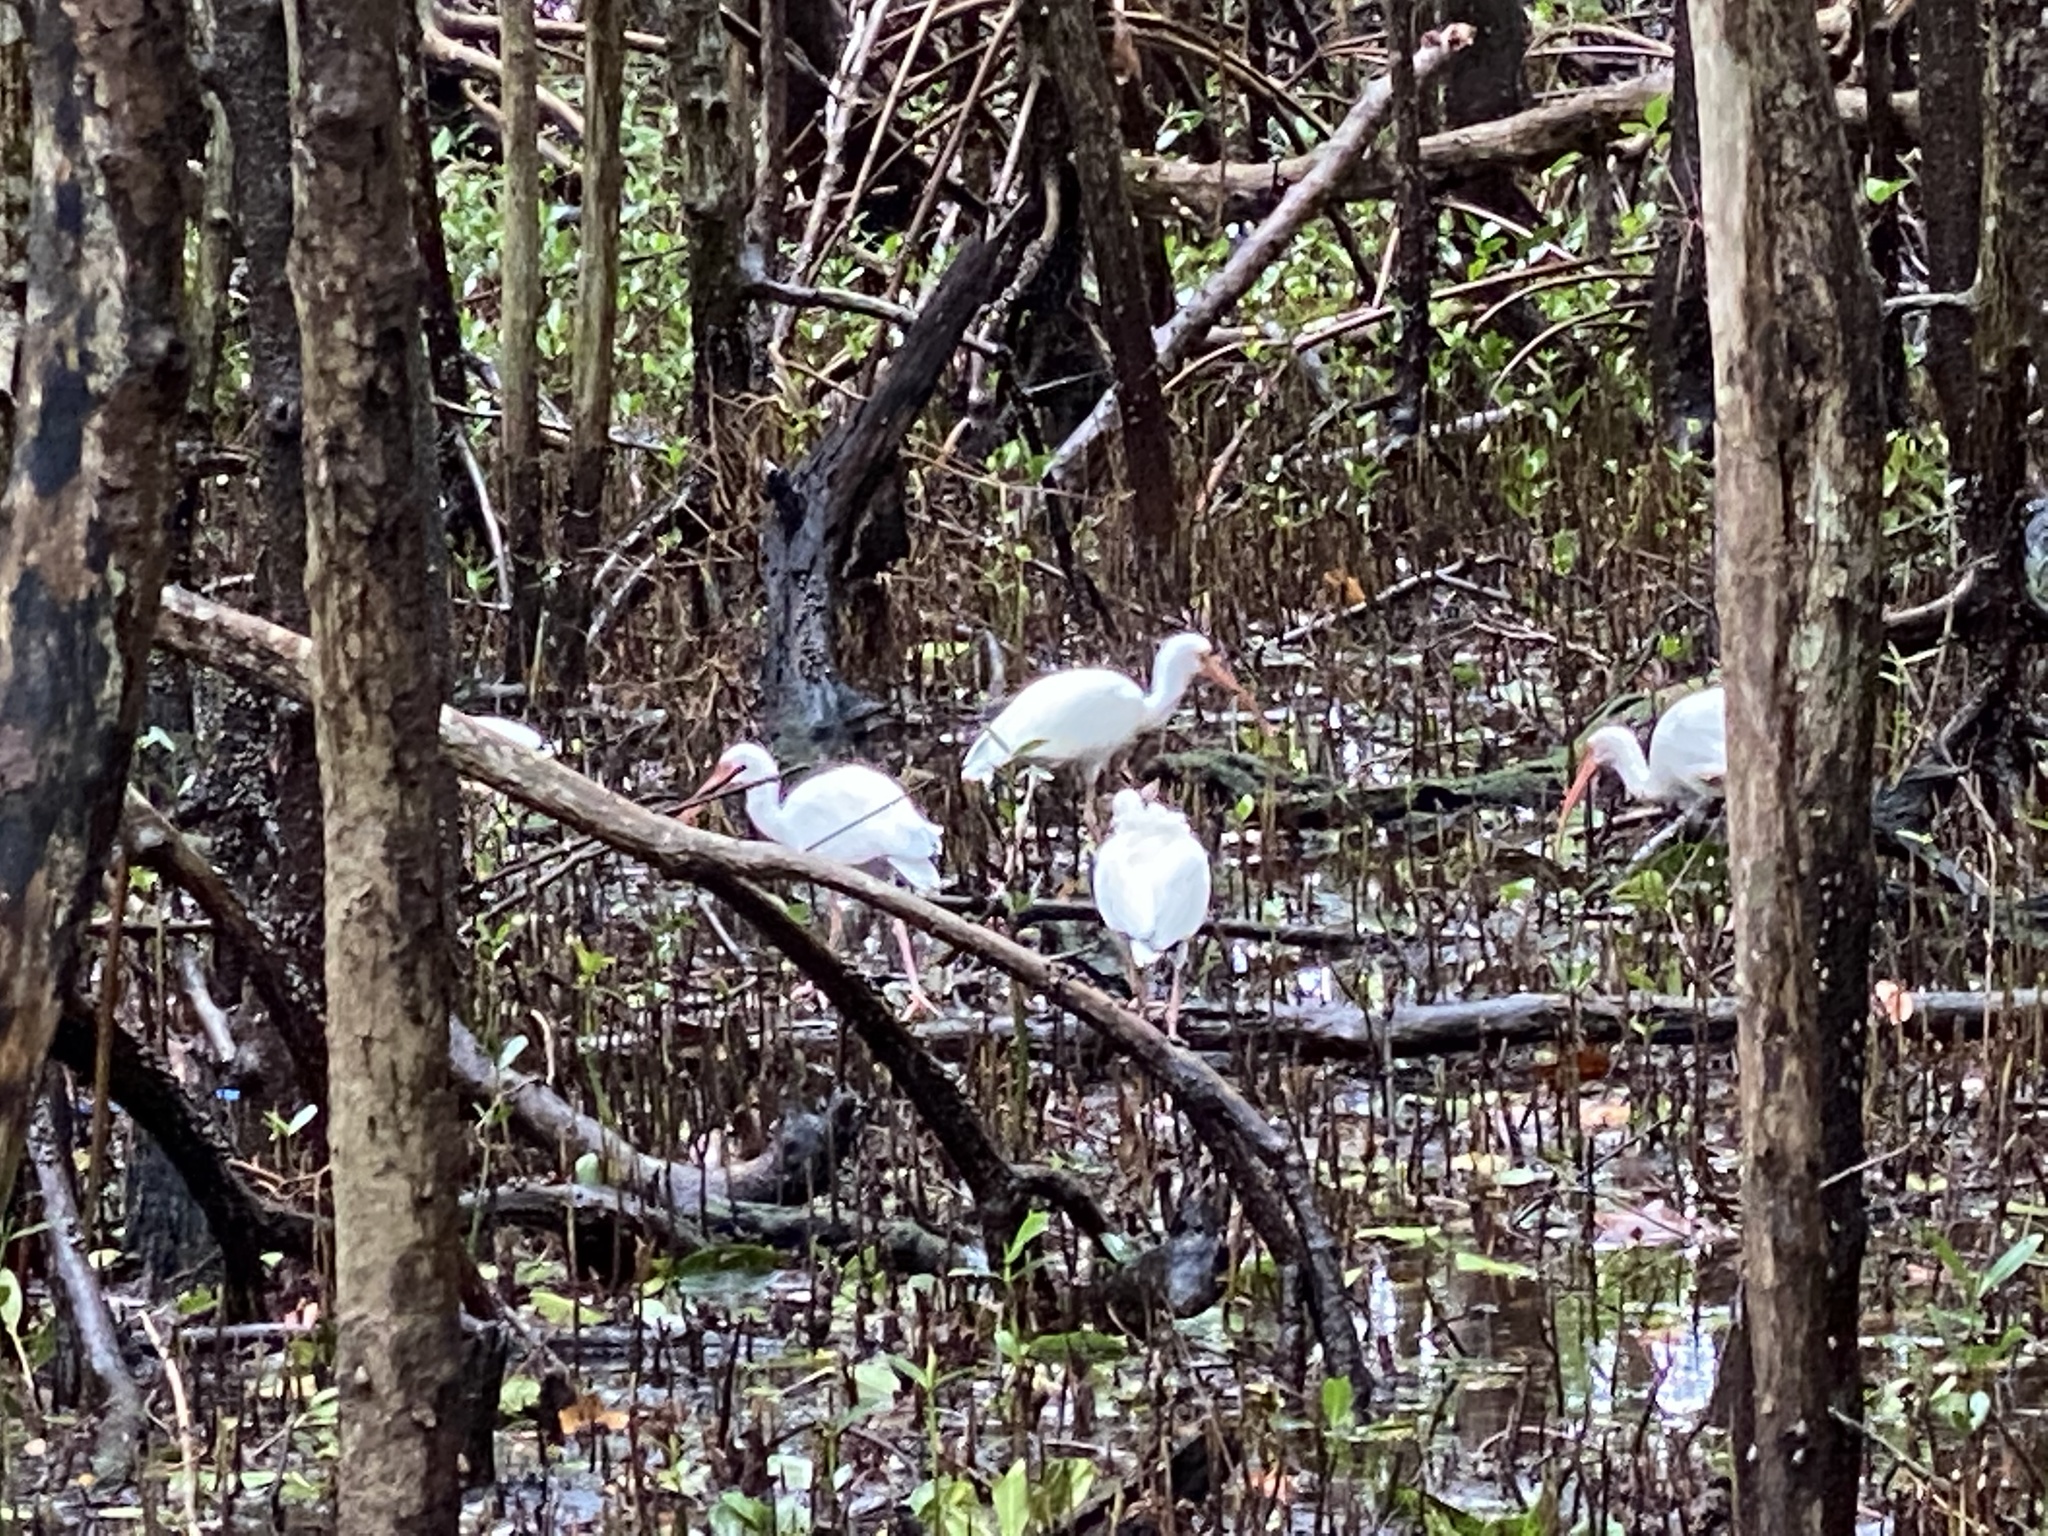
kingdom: Animalia
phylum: Chordata
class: Aves
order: Pelecaniformes
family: Threskiornithidae
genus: Eudocimus
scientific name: Eudocimus albus
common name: White ibis
